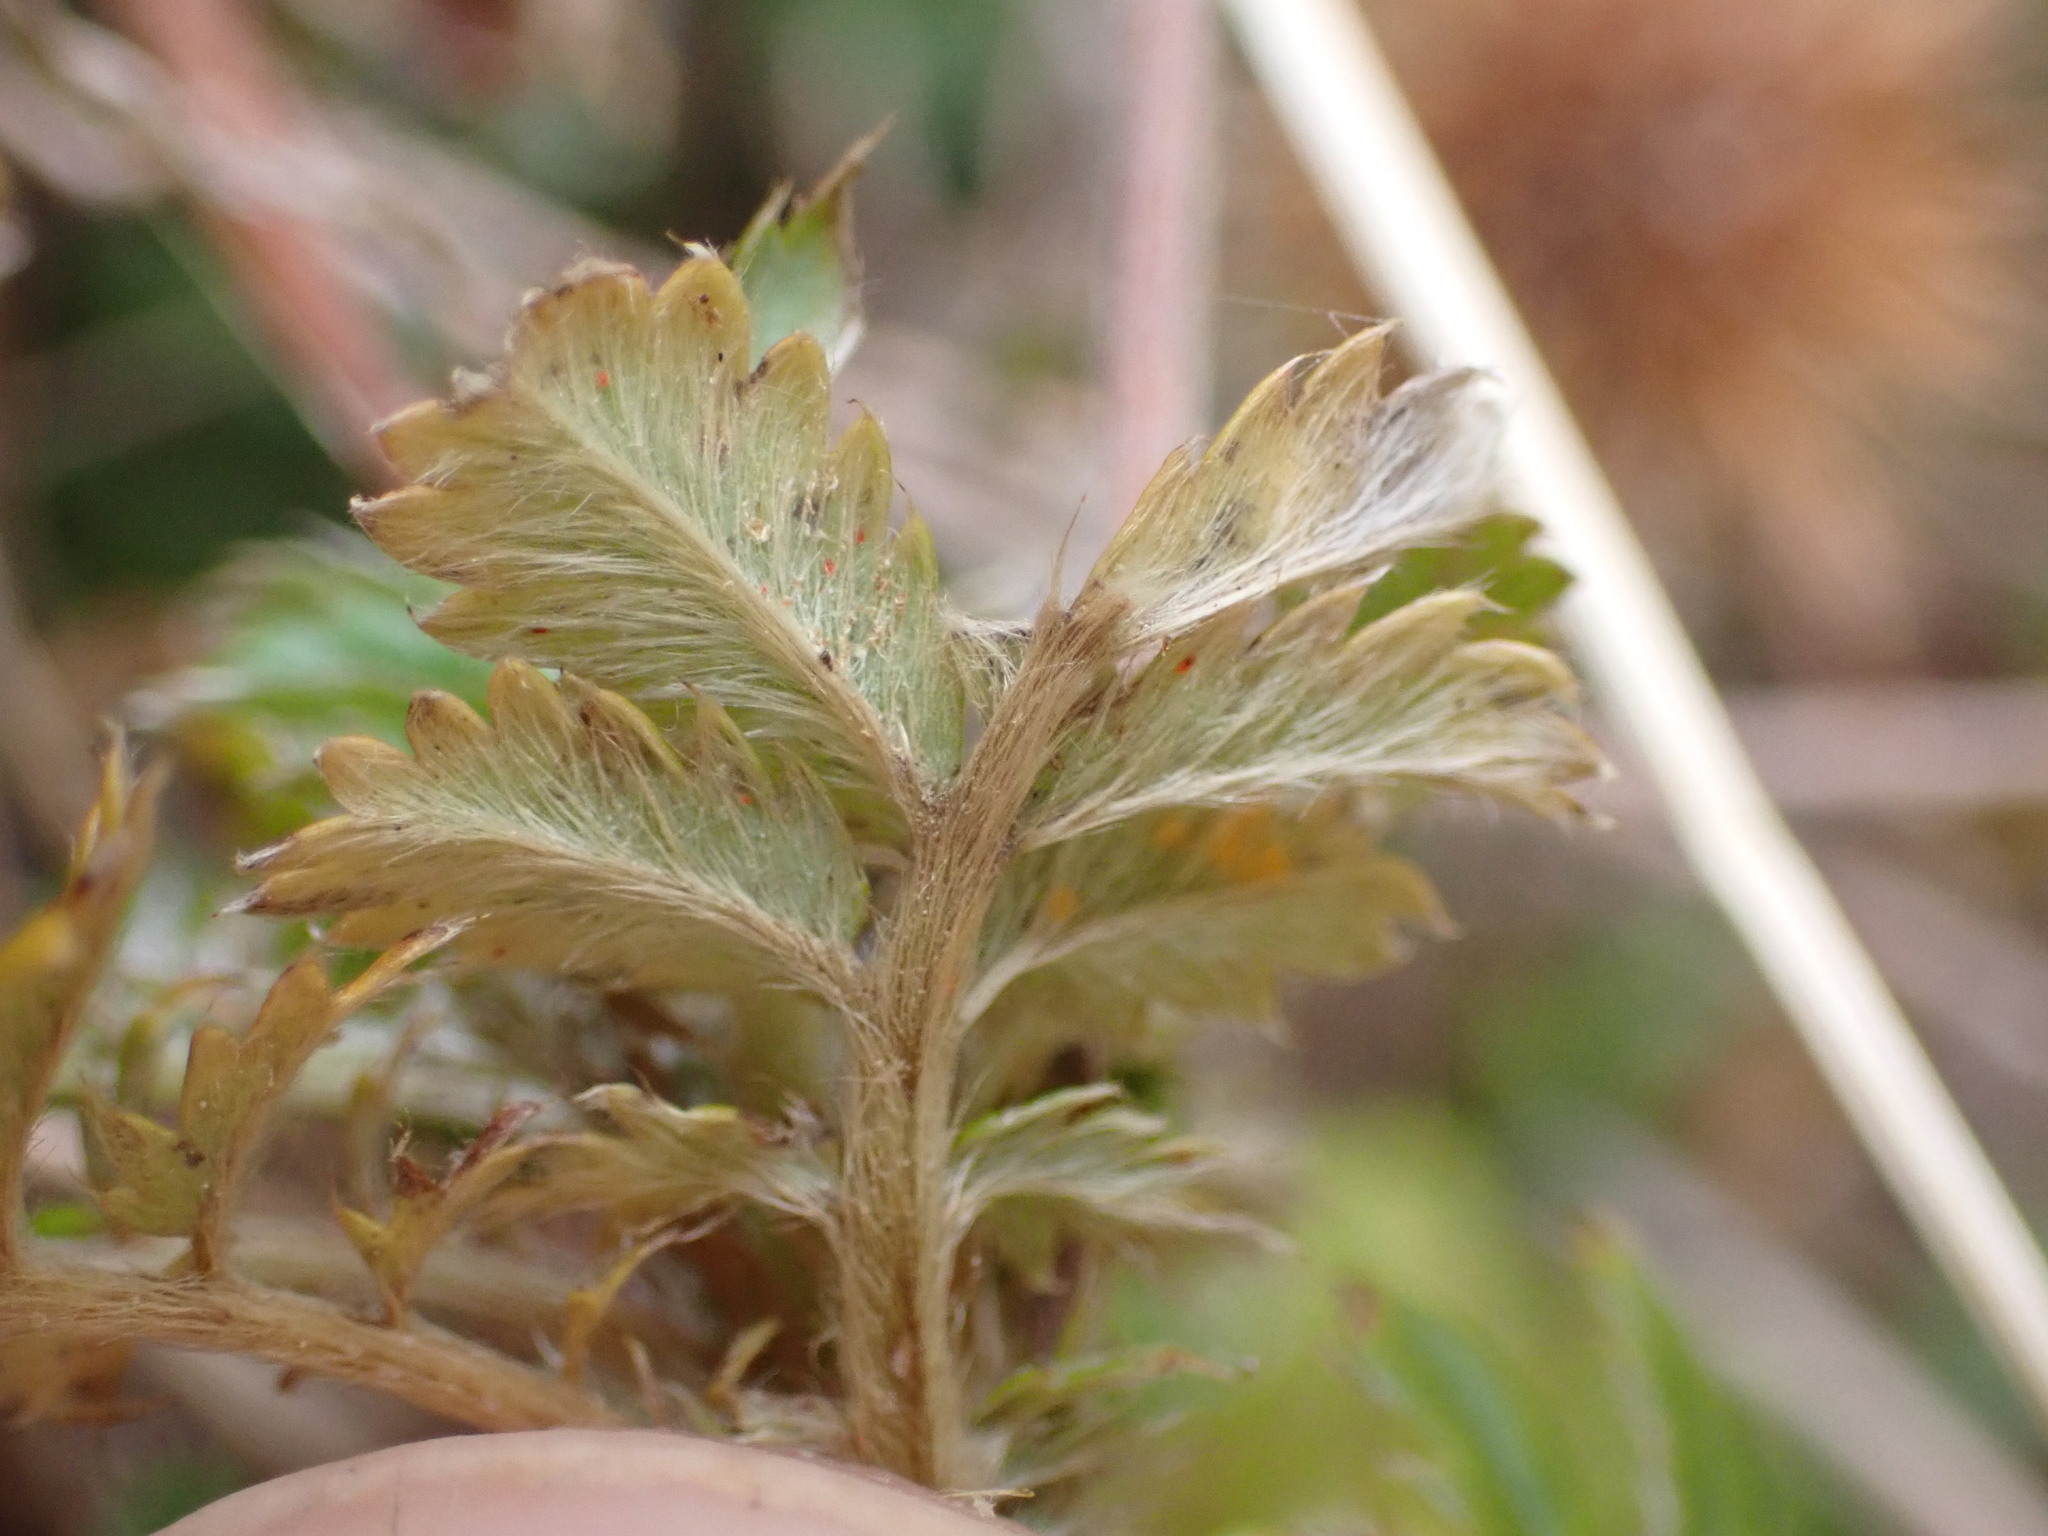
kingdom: Plantae
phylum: Tracheophyta
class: Magnoliopsida
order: Rosales
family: Rosaceae
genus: Acaena
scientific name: Acaena anserinifolia
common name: Bronze pirri-pirri-bur
